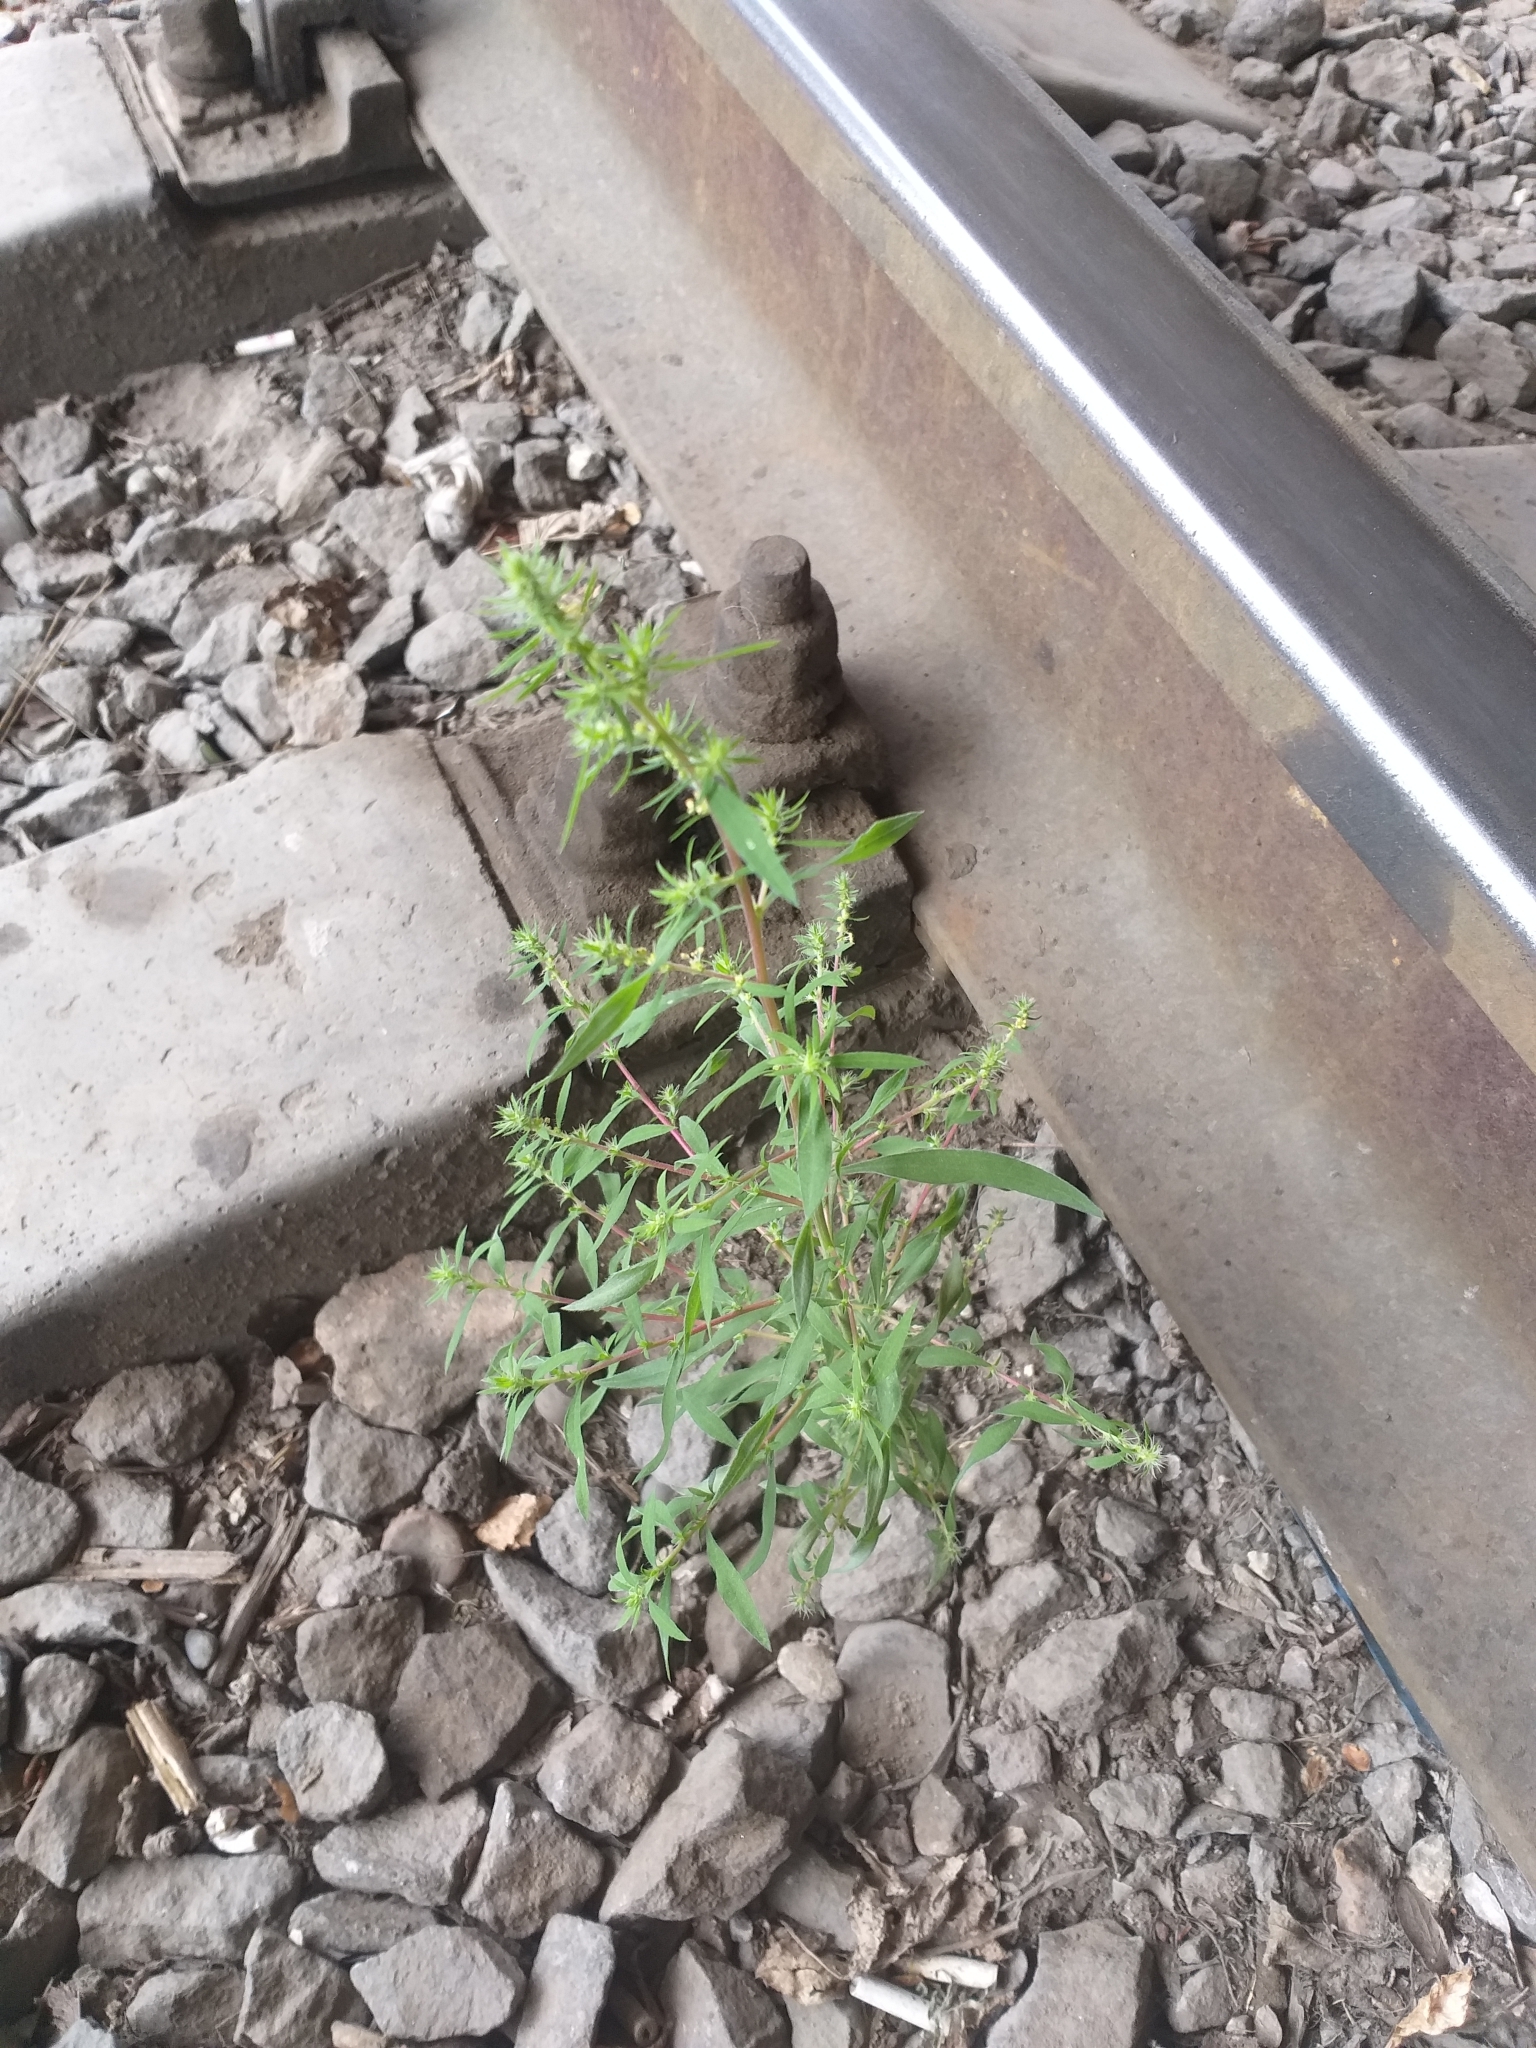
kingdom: Plantae
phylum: Tracheophyta
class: Magnoliopsida
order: Caryophyllales
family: Amaranthaceae
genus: Bassia
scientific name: Bassia scoparia
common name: Belvedere
